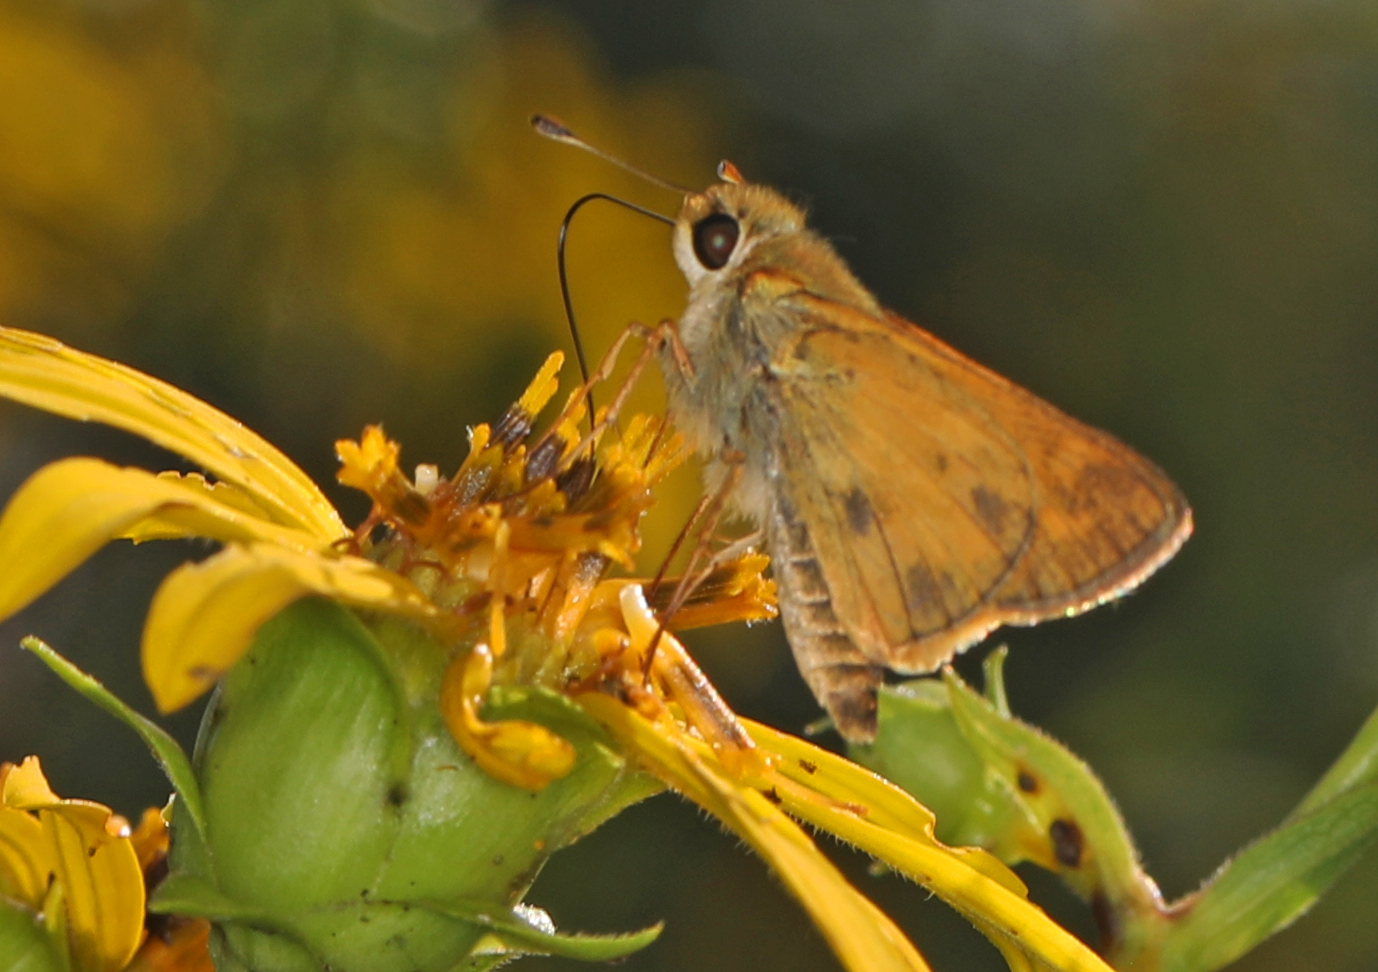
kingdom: Animalia
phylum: Arthropoda
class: Insecta
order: Lepidoptera
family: Hesperiidae
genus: Atalopedes
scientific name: Atalopedes
